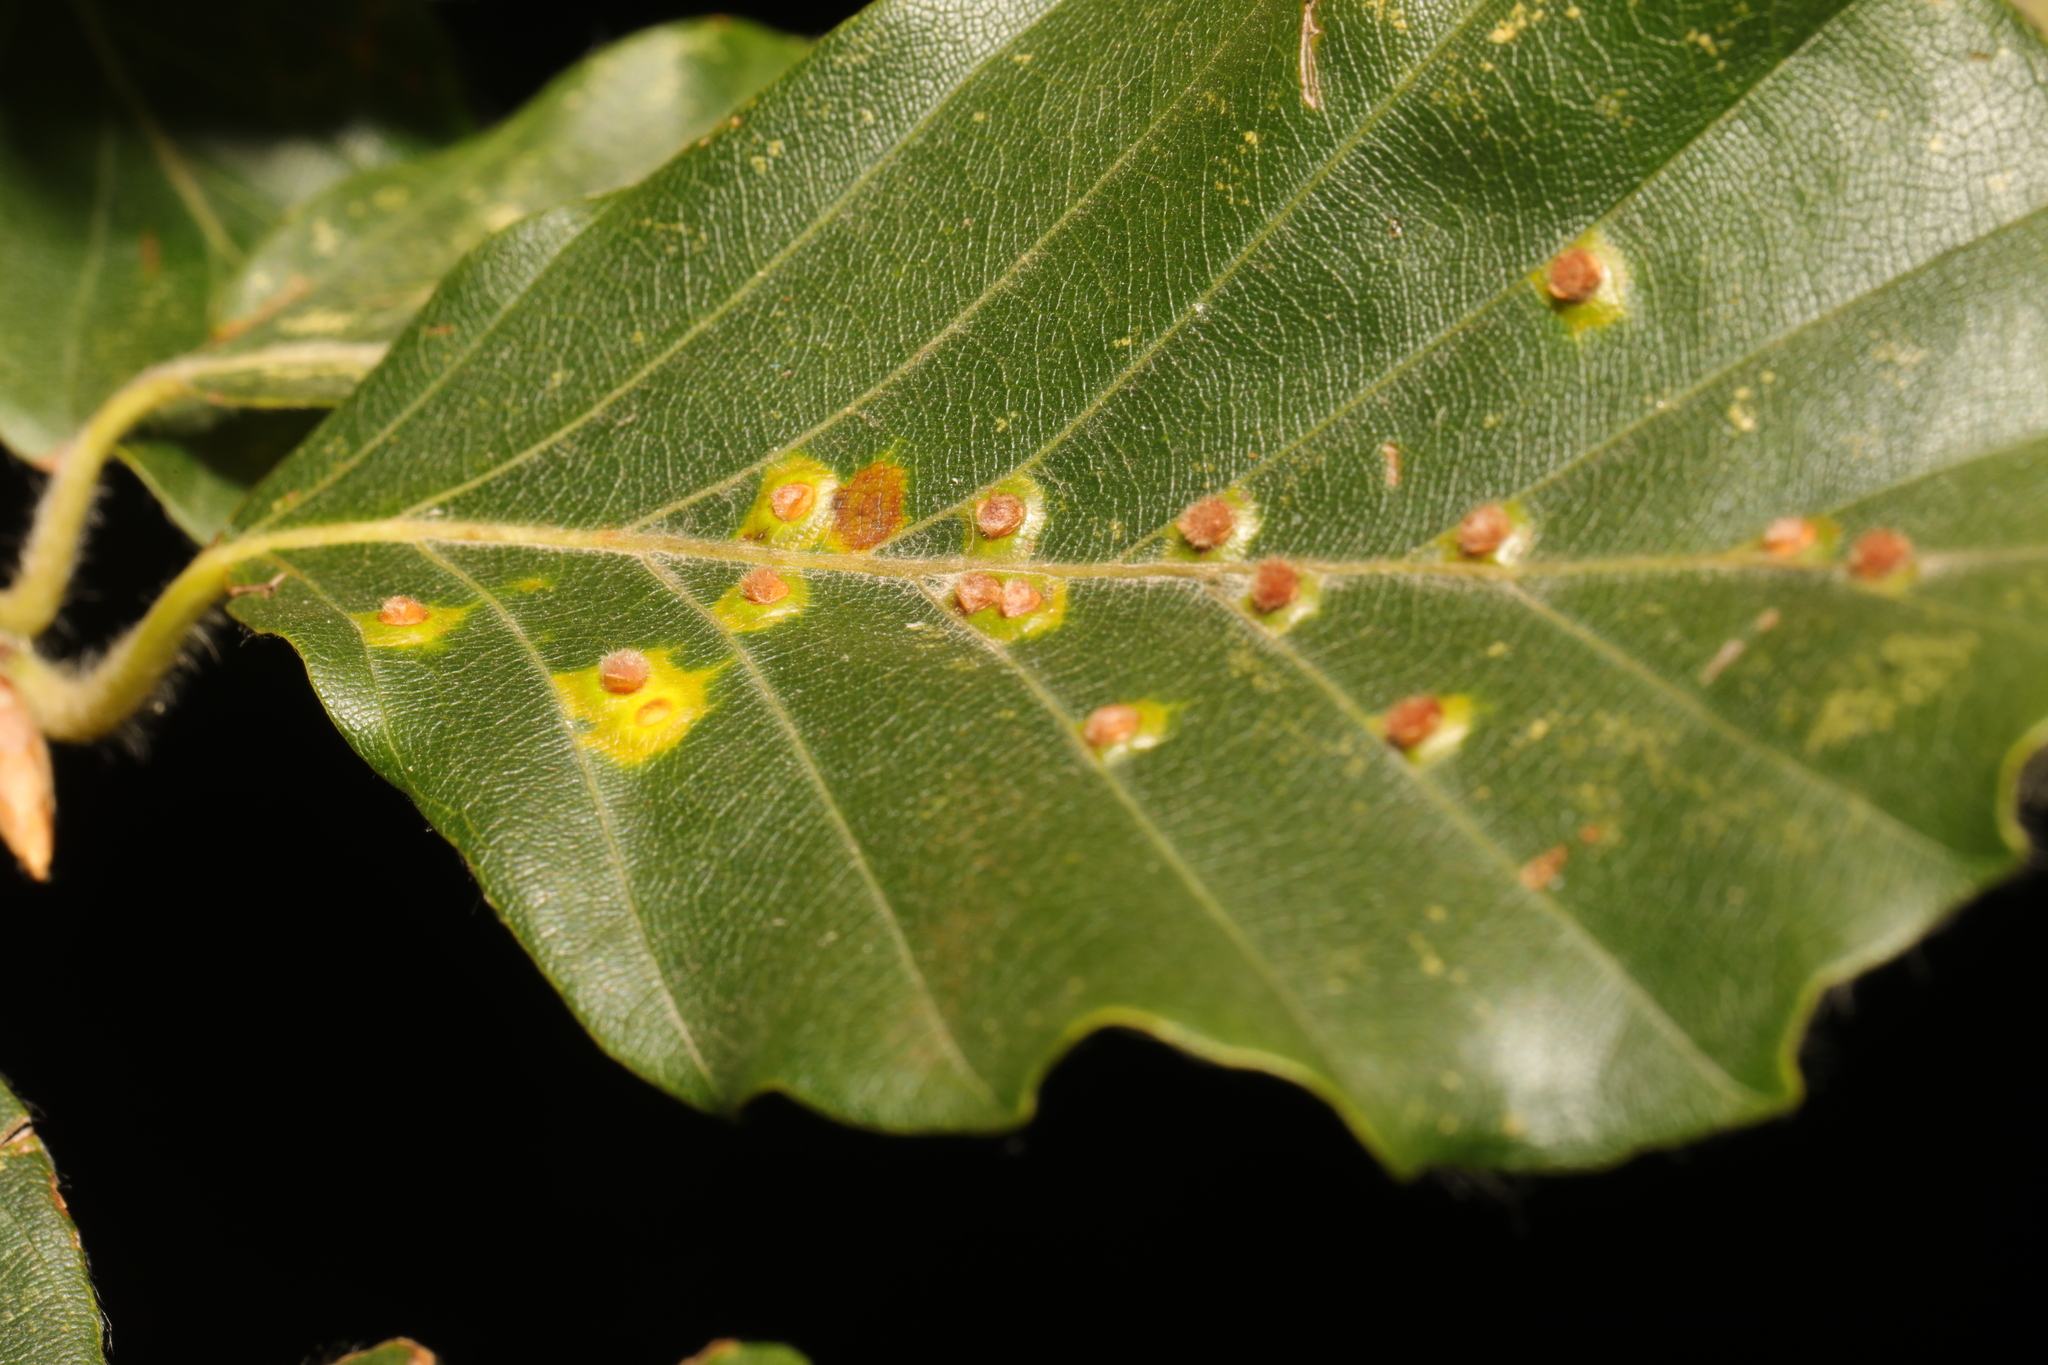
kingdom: Animalia
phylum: Arthropoda
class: Insecta
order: Diptera
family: Cecidomyiidae
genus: Hartigiola
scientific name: Hartigiola annulipes
